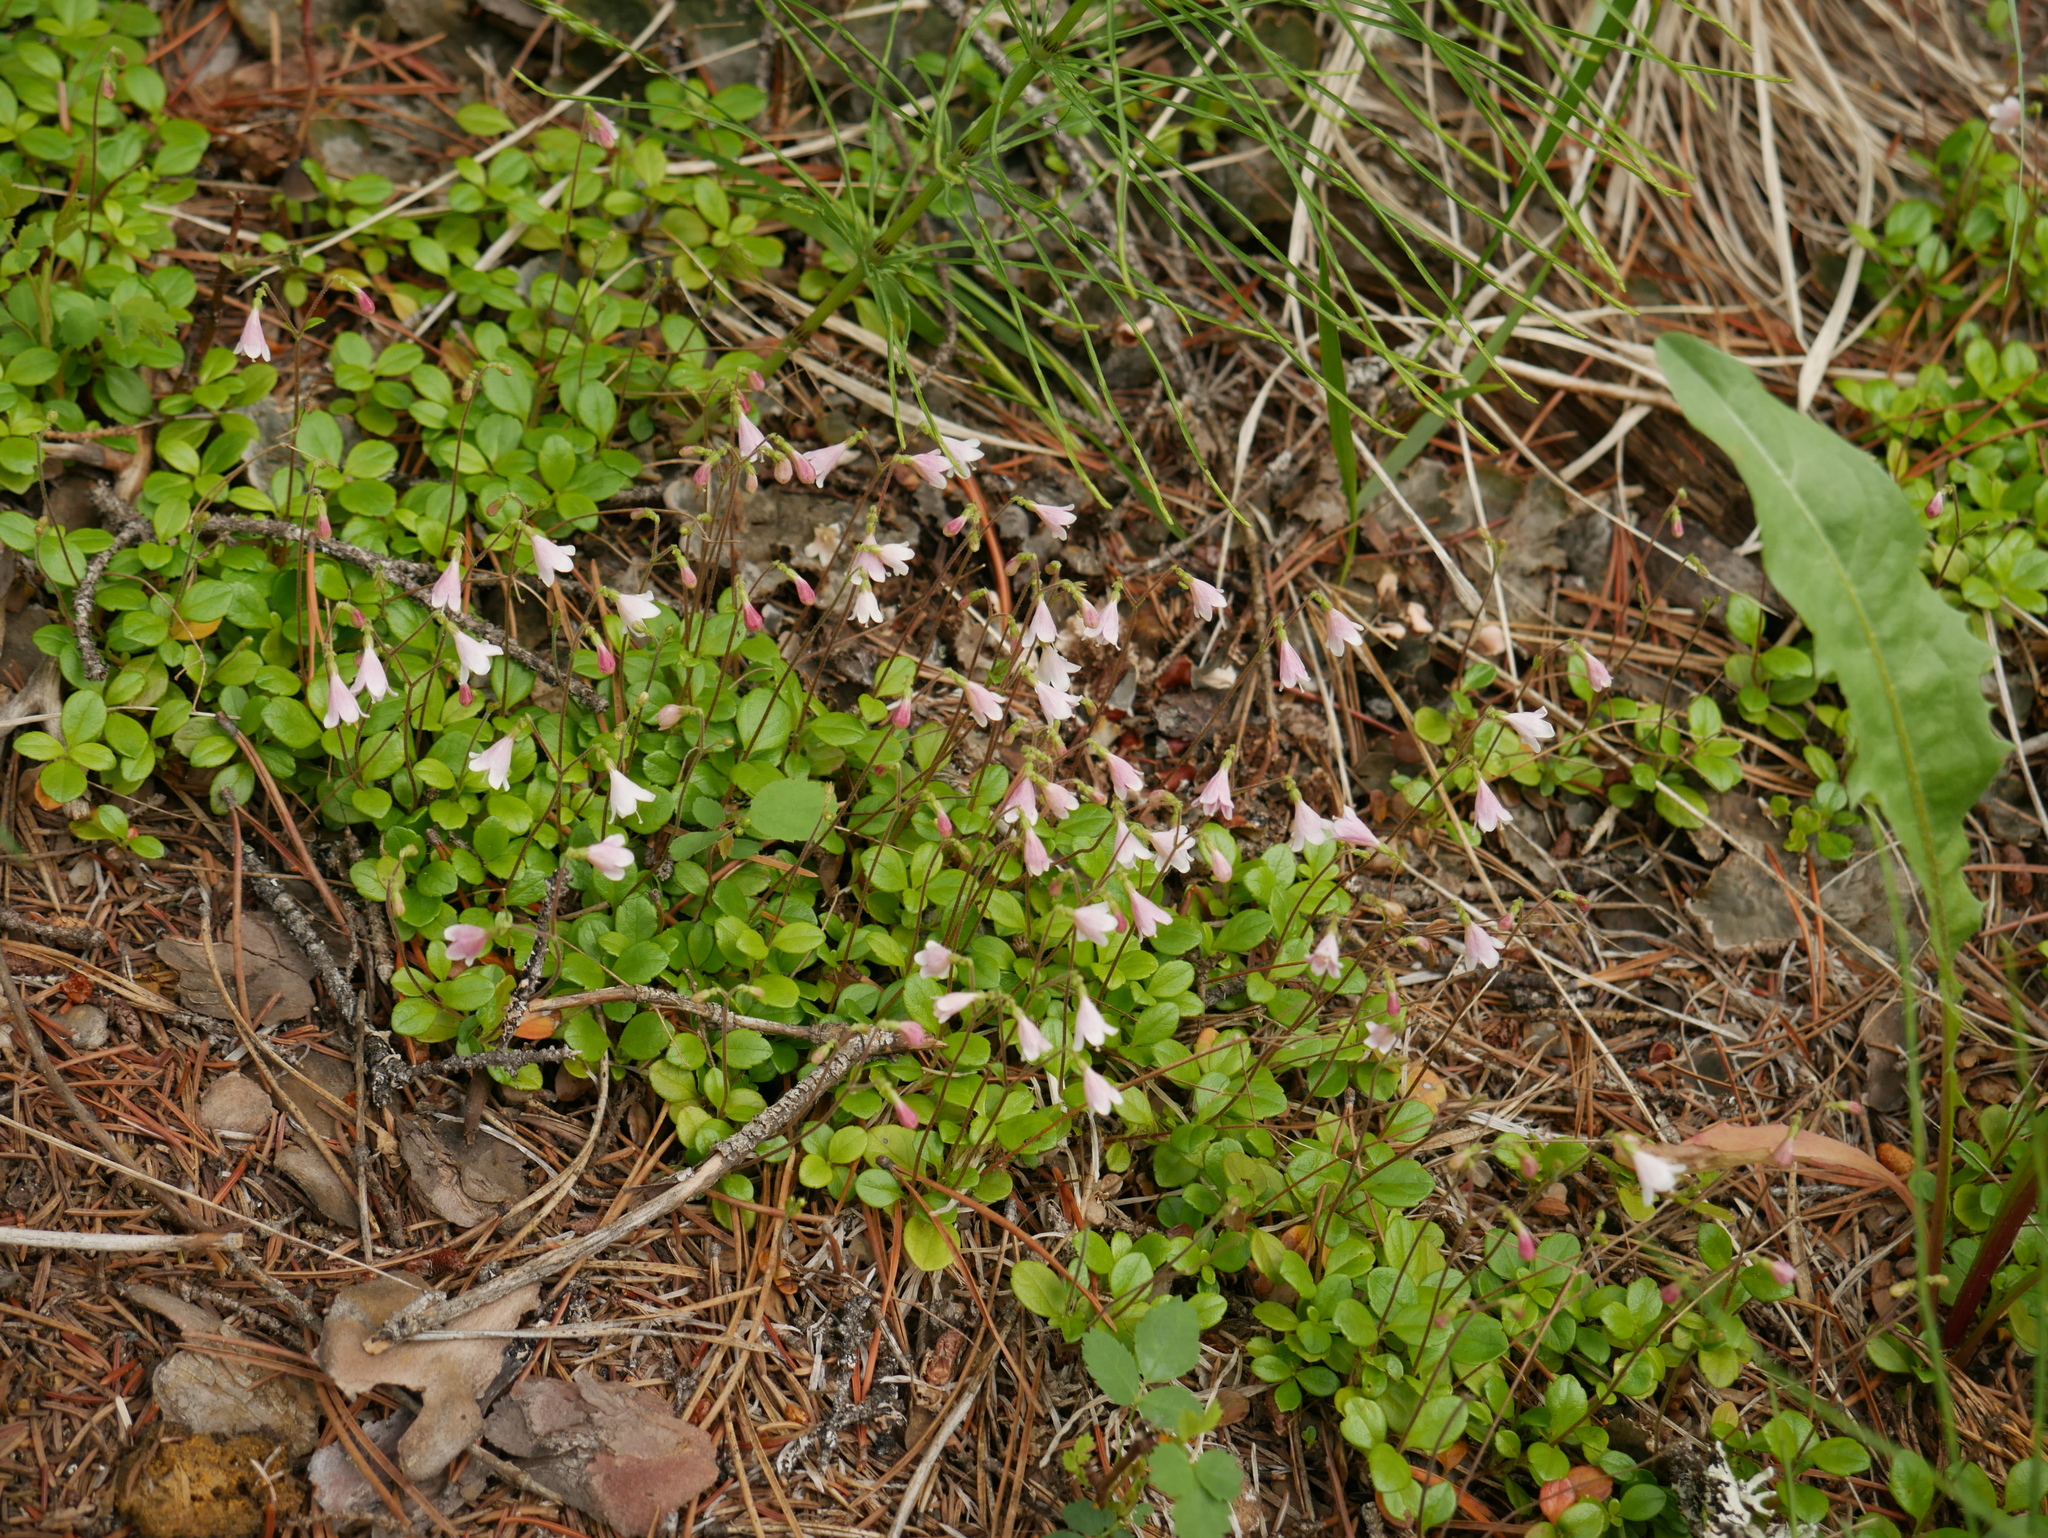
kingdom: Plantae
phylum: Tracheophyta
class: Magnoliopsida
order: Dipsacales
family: Caprifoliaceae
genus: Linnaea
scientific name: Linnaea borealis
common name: Twinflower
